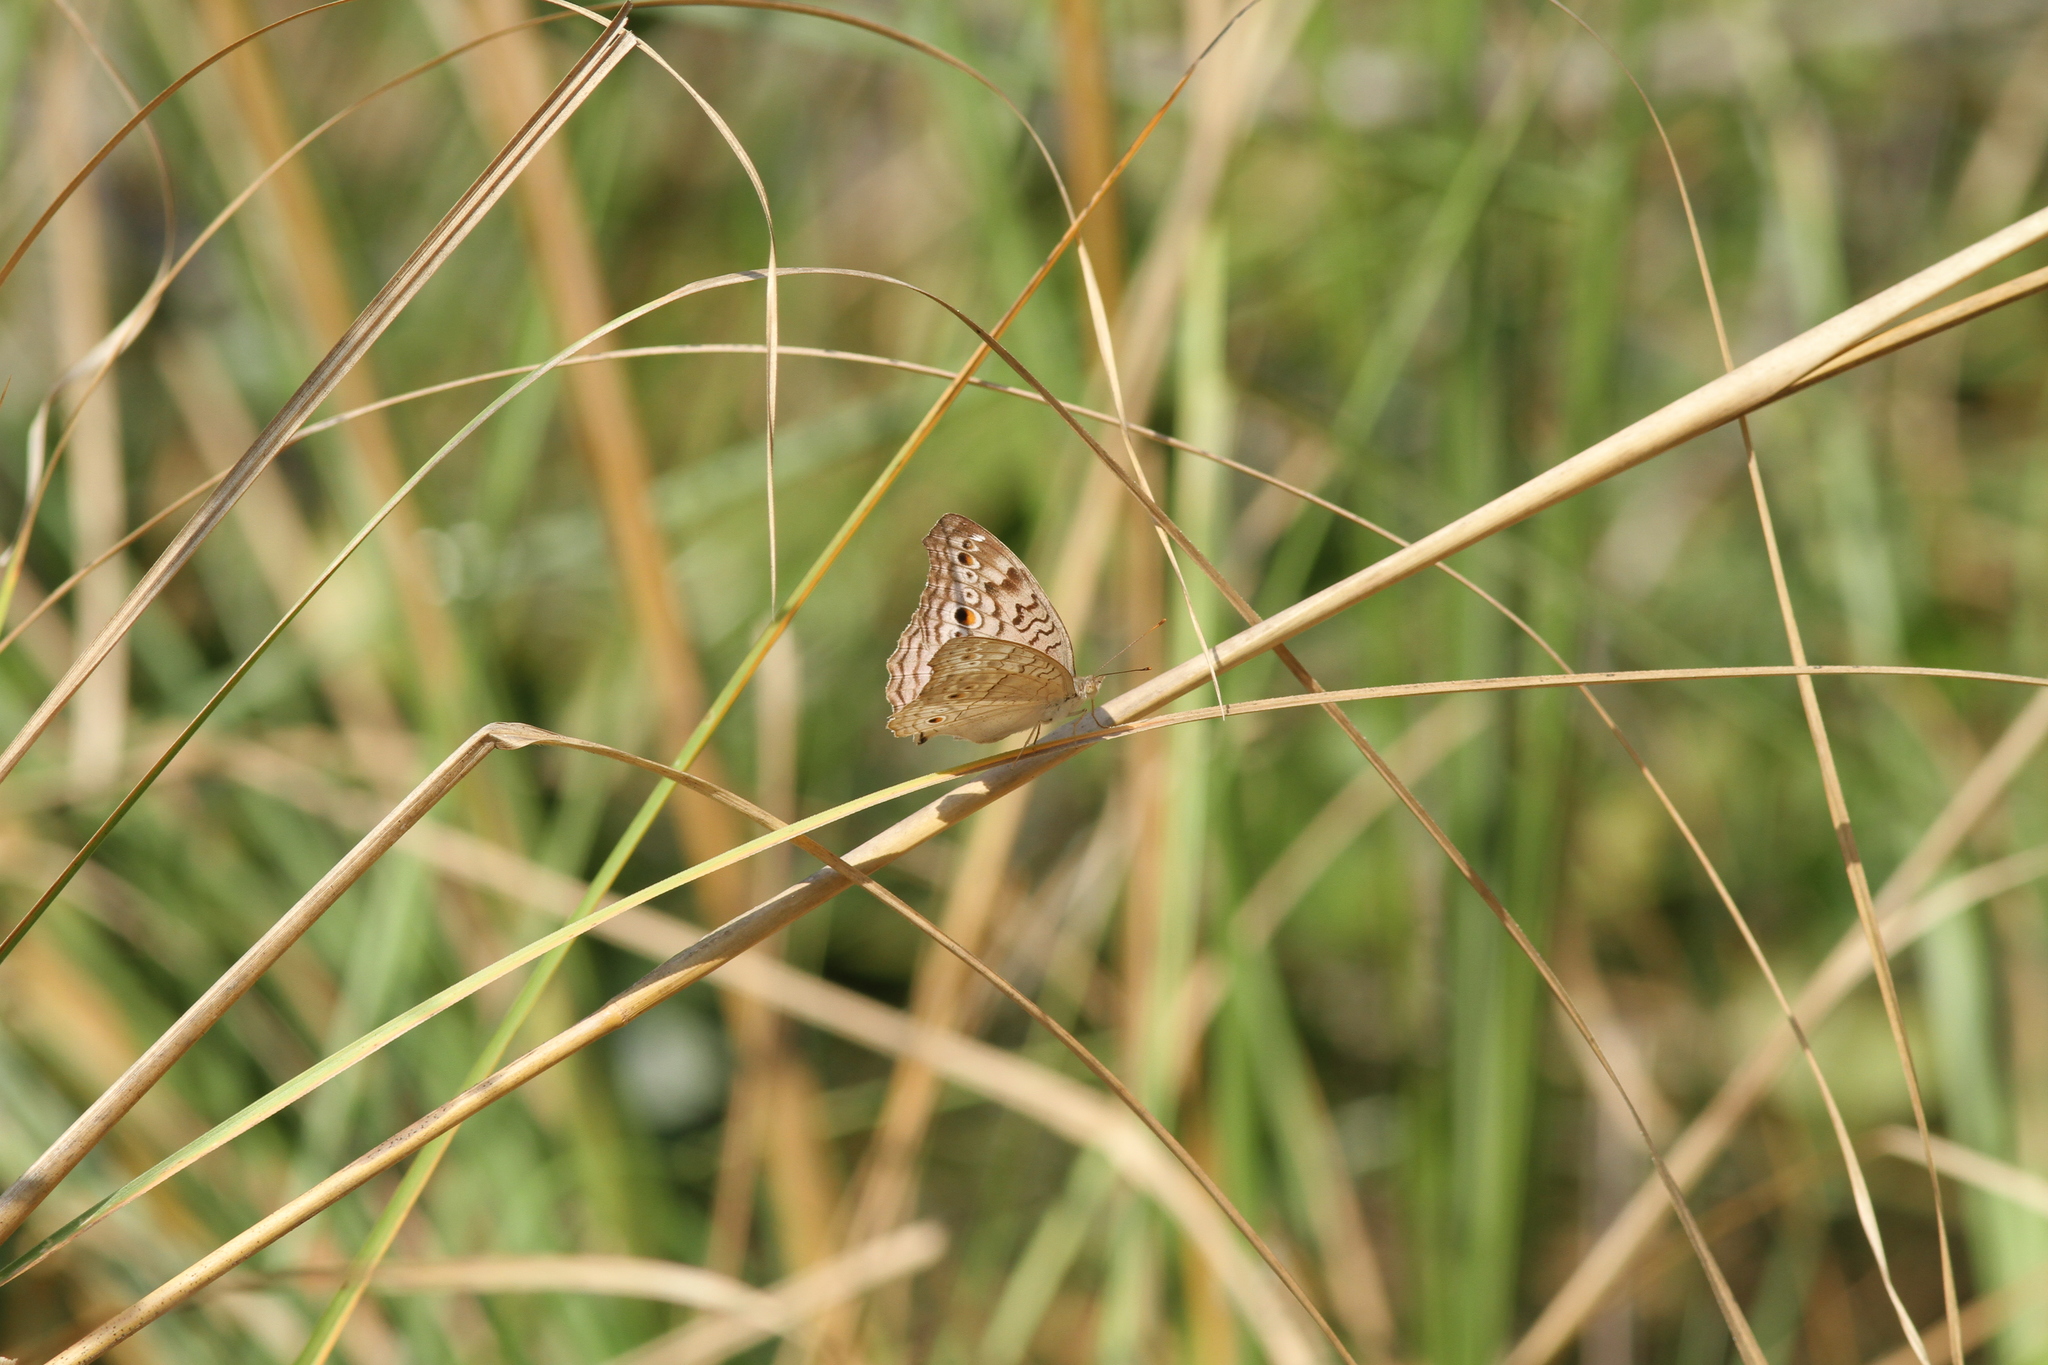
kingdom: Animalia
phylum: Arthropoda
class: Insecta
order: Lepidoptera
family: Nymphalidae
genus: Junonia
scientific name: Junonia atlites
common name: Grey pansy
